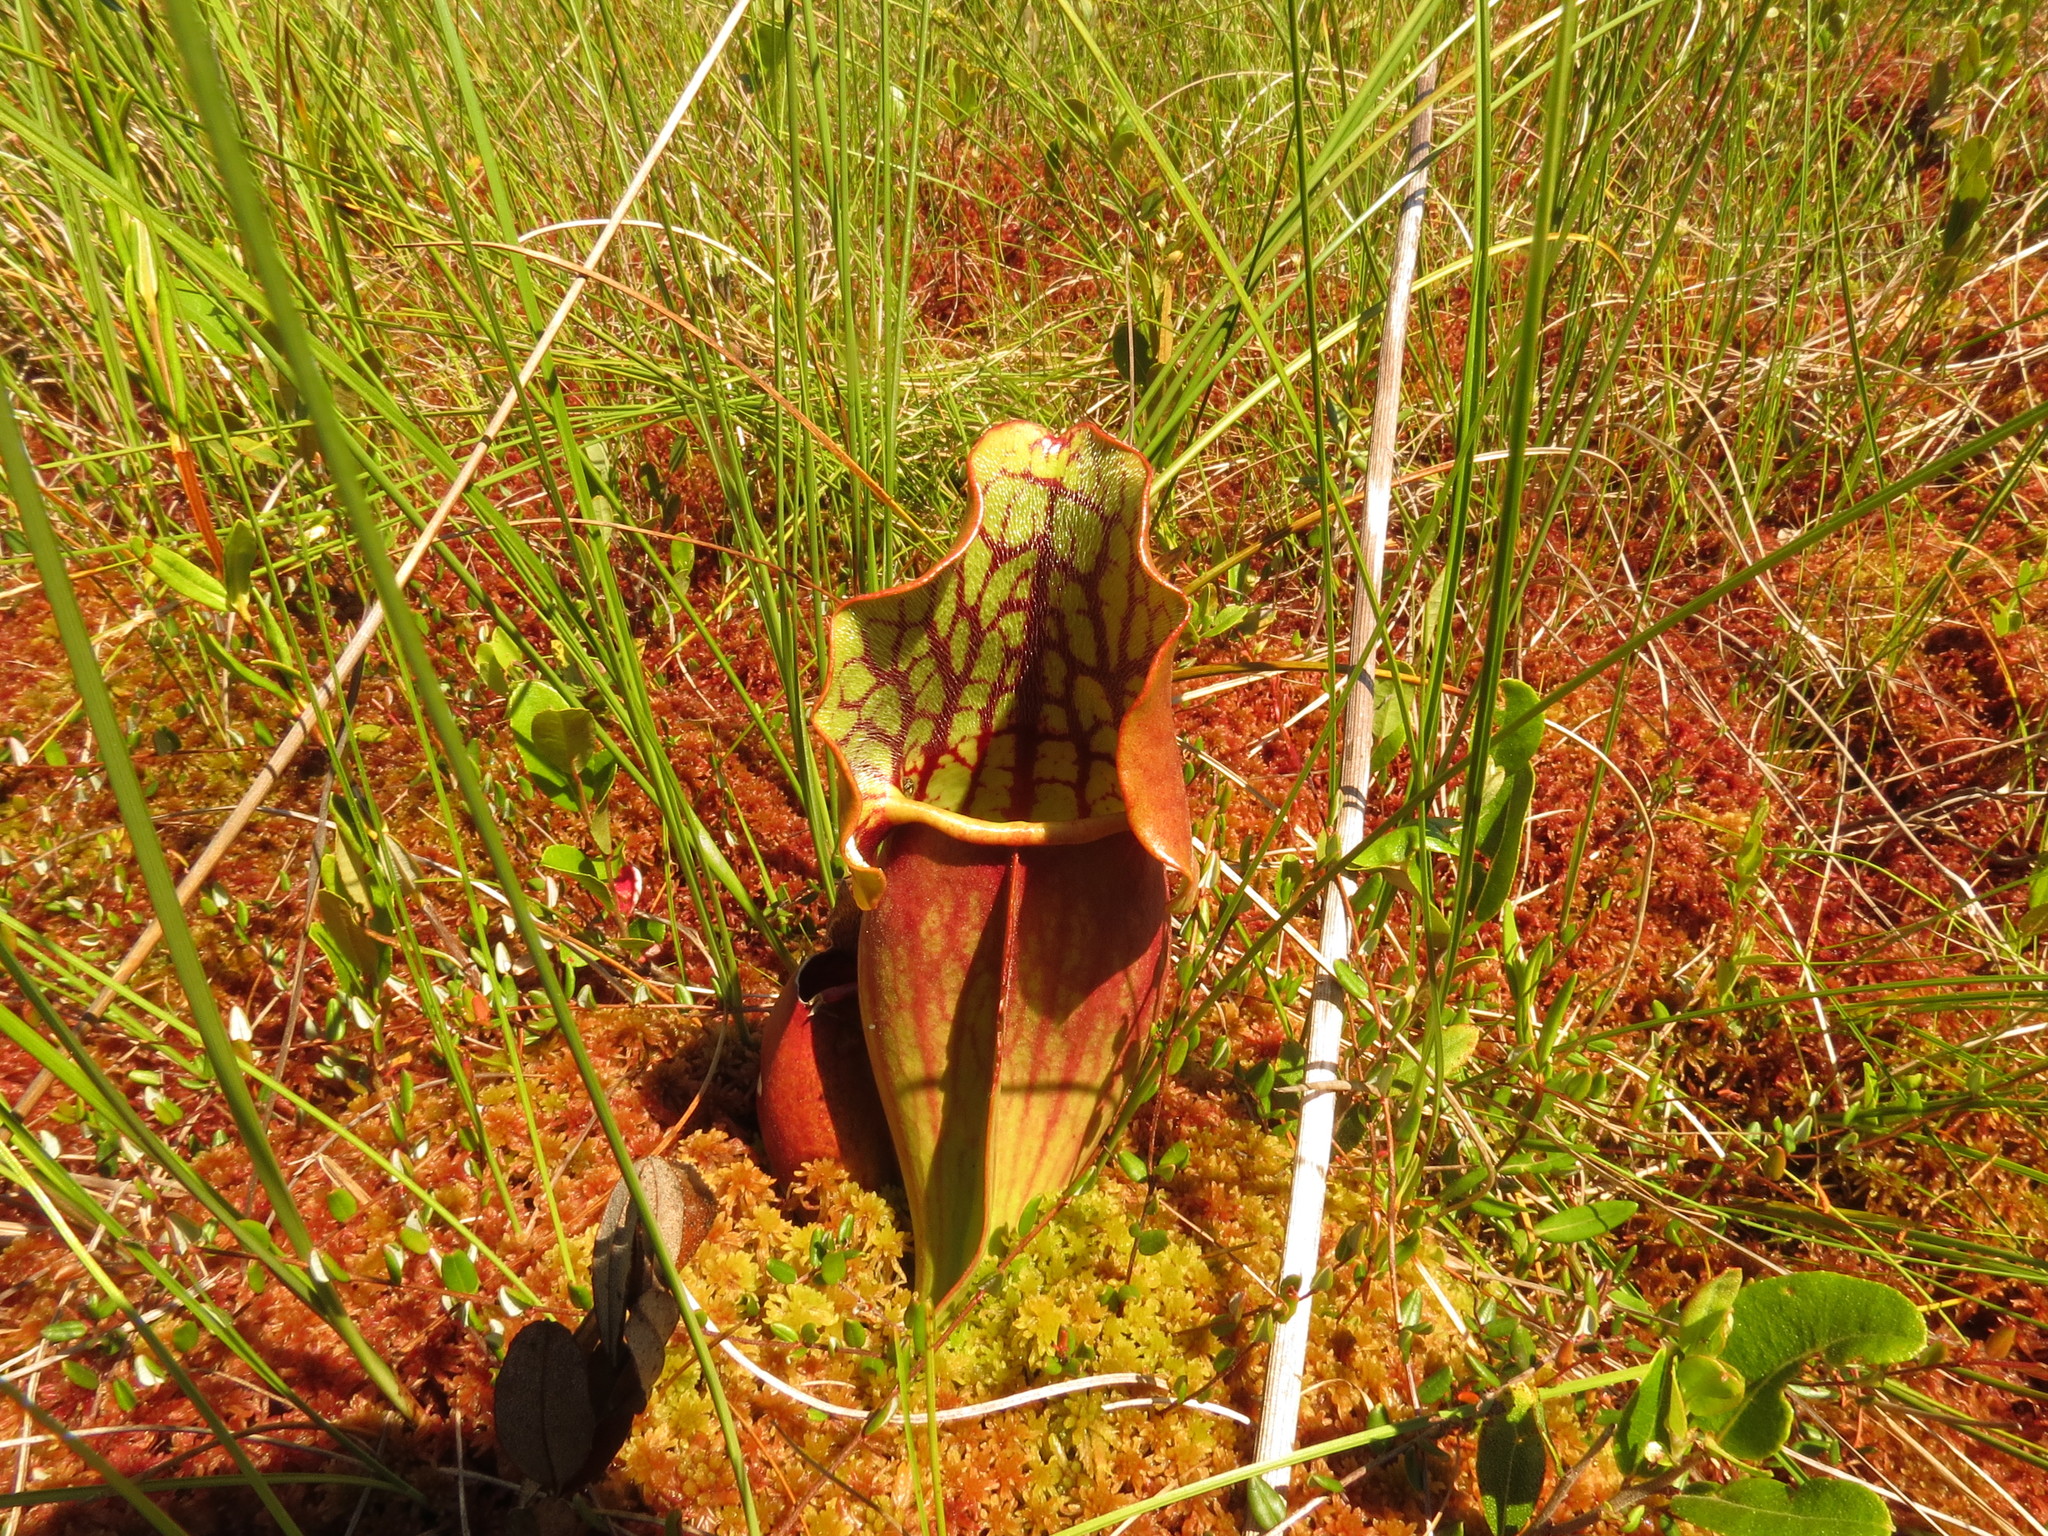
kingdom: Plantae
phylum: Tracheophyta
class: Magnoliopsida
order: Ericales
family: Sarraceniaceae
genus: Sarracenia
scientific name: Sarracenia purpurea
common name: Pitcherplant
